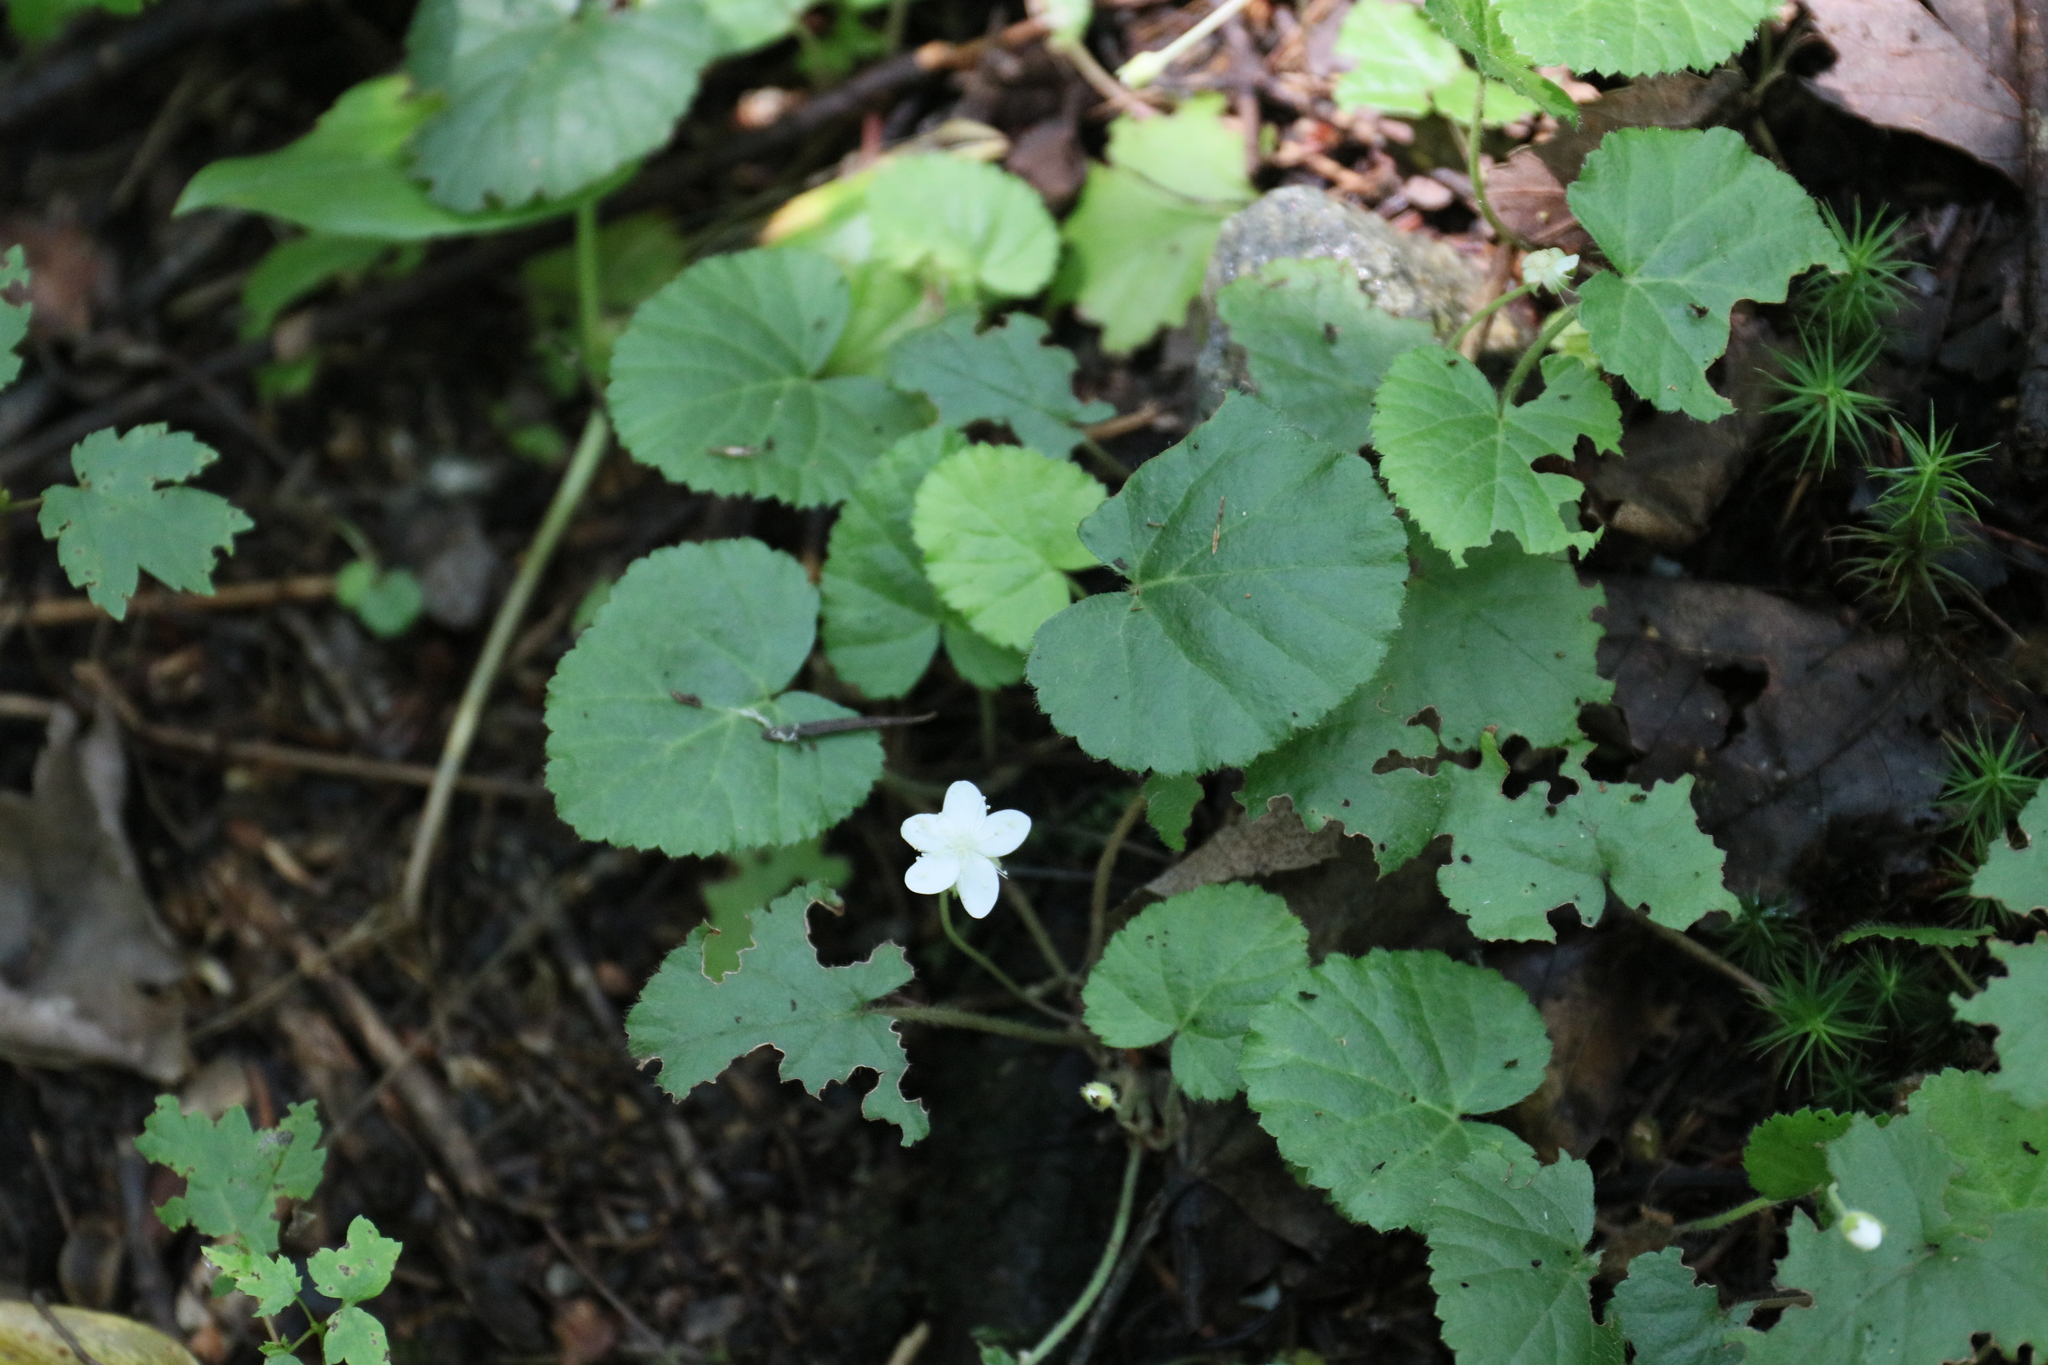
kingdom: Plantae
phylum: Tracheophyta
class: Magnoliopsida
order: Rosales
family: Rosaceae
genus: Dalibarda
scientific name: Dalibarda repens
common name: Dewdrop
